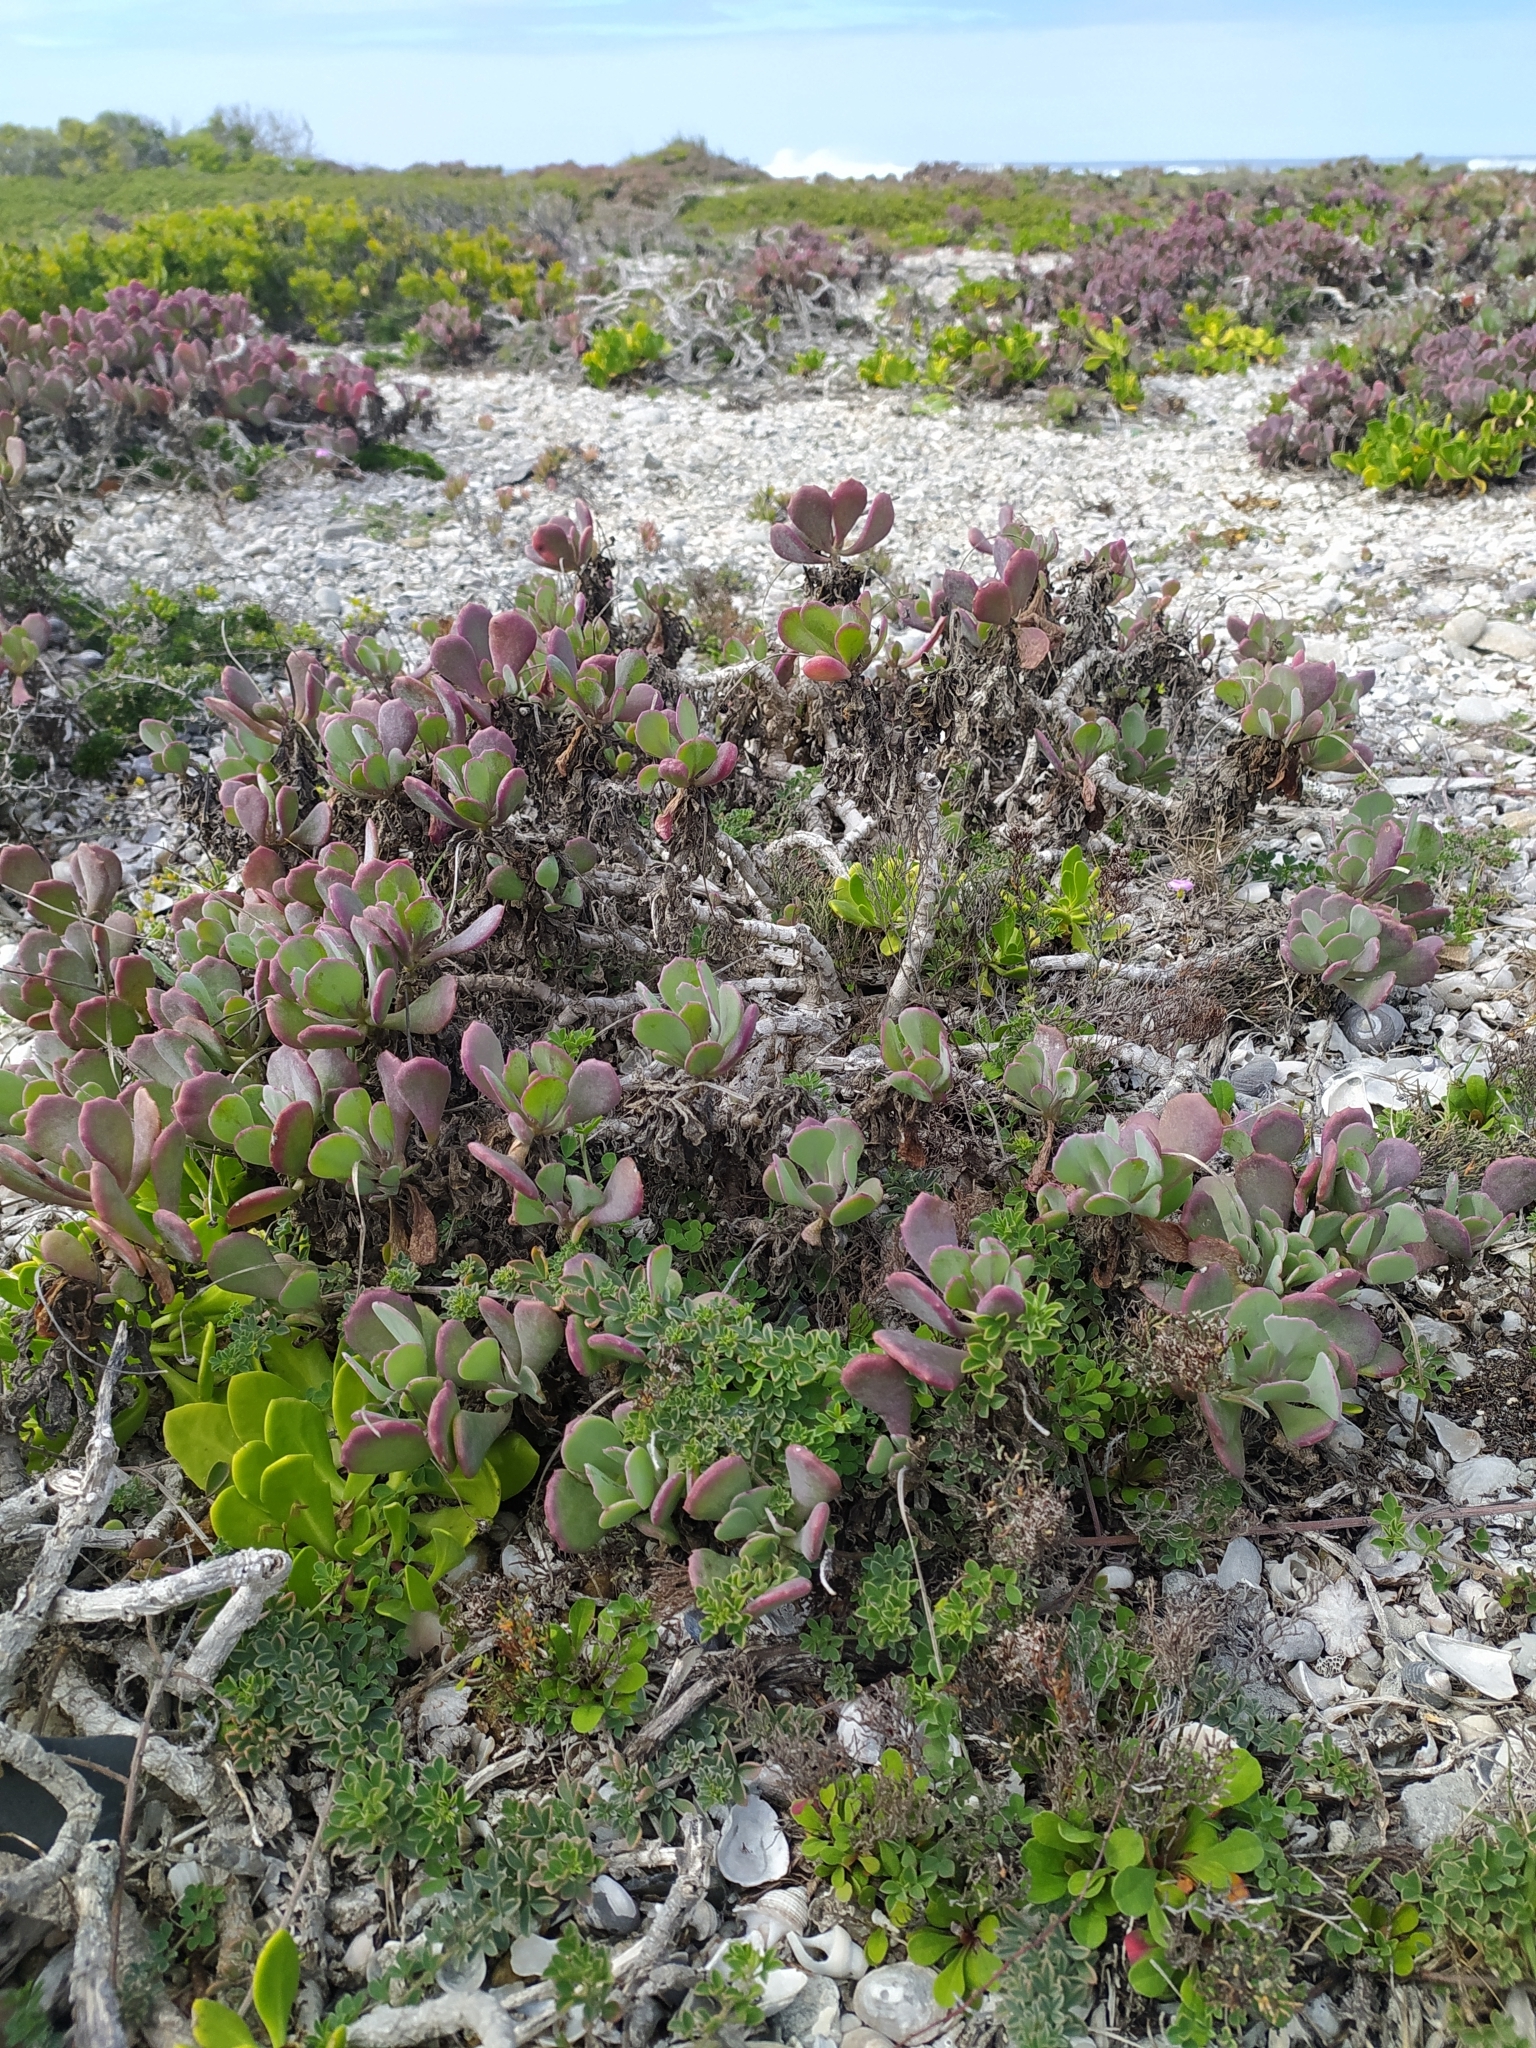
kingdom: Plantae
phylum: Tracheophyta
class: Magnoliopsida
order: Asterales
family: Asteraceae
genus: Othonna
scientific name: Othonna
